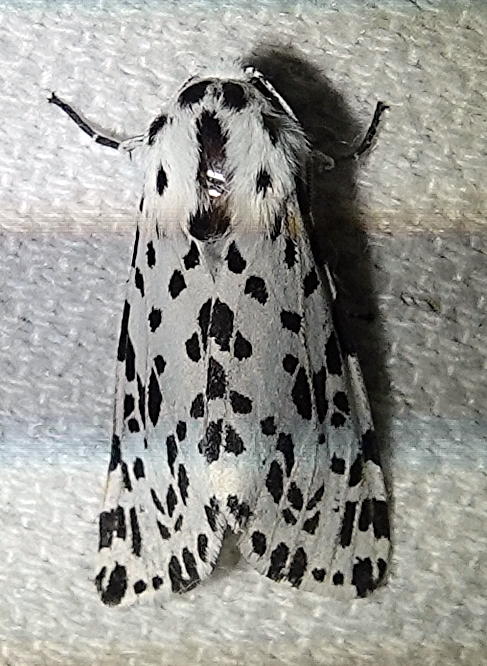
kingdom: Animalia
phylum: Arthropoda
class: Insecta
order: Lepidoptera
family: Erebidae
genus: Hypercompe
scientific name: Hypercompe permaculata
